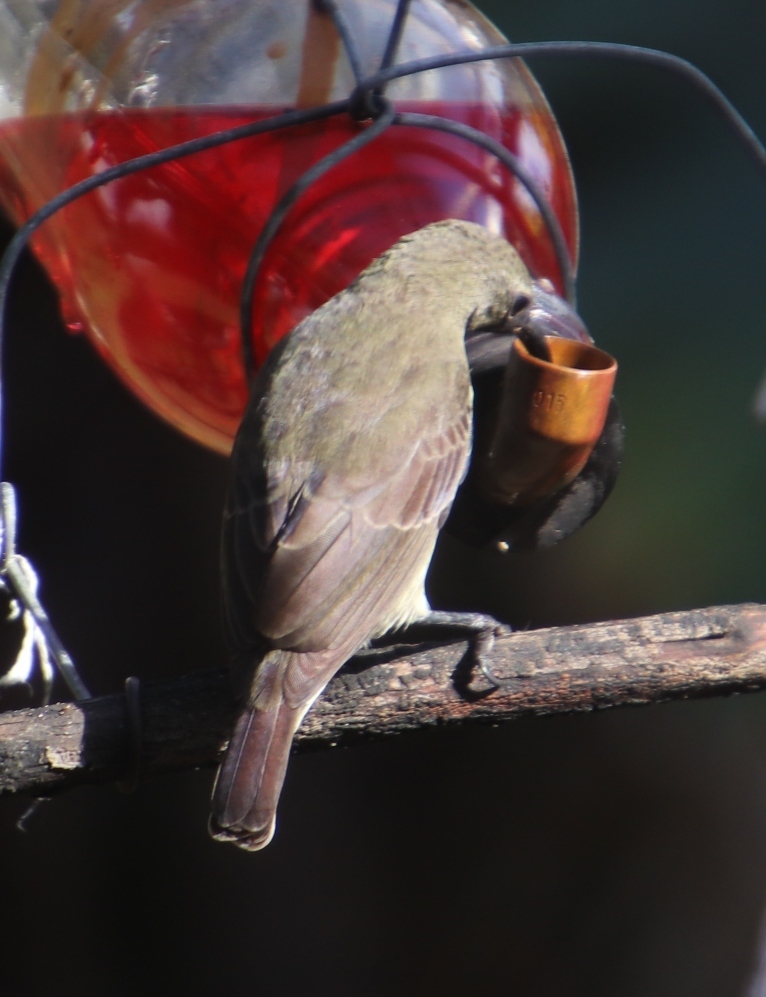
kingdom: Animalia
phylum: Chordata
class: Aves
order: Passeriformes
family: Nectariniidae
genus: Nectarinia
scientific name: Nectarinia famosa
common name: Malachite sunbird
